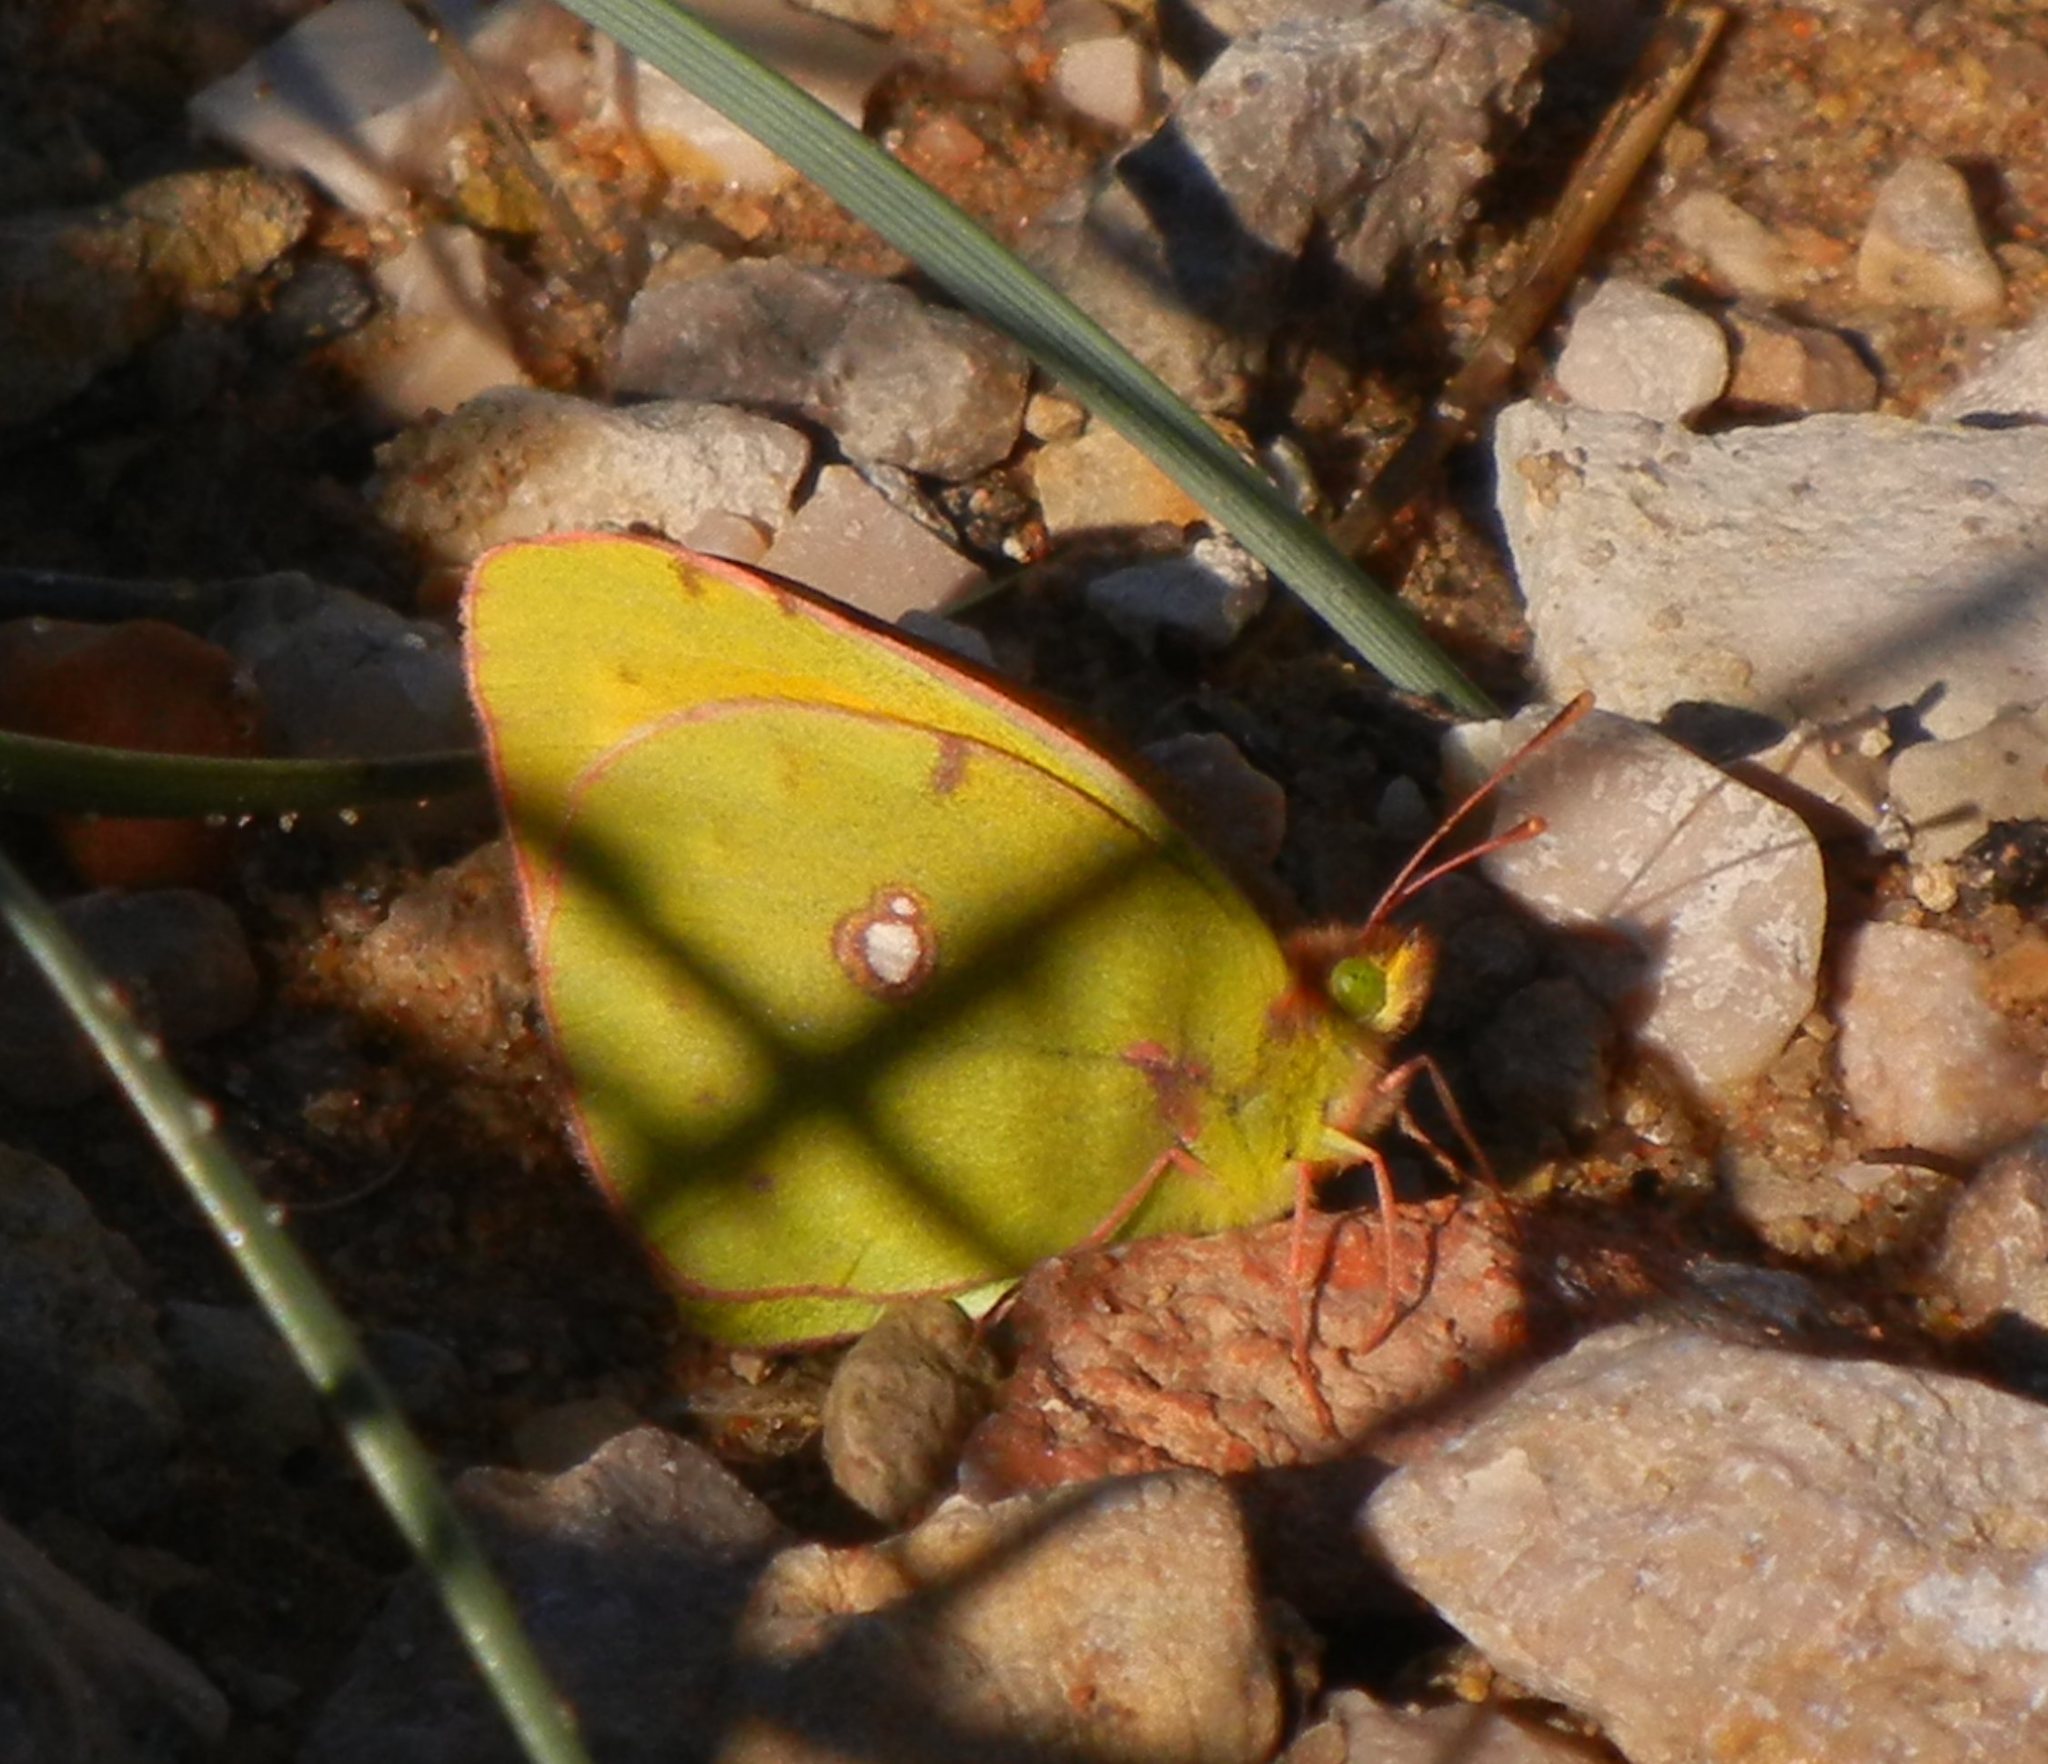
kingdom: Animalia
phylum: Arthropoda
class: Insecta
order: Lepidoptera
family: Pieridae
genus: Colias
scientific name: Colias croceus
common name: Clouded yellow
